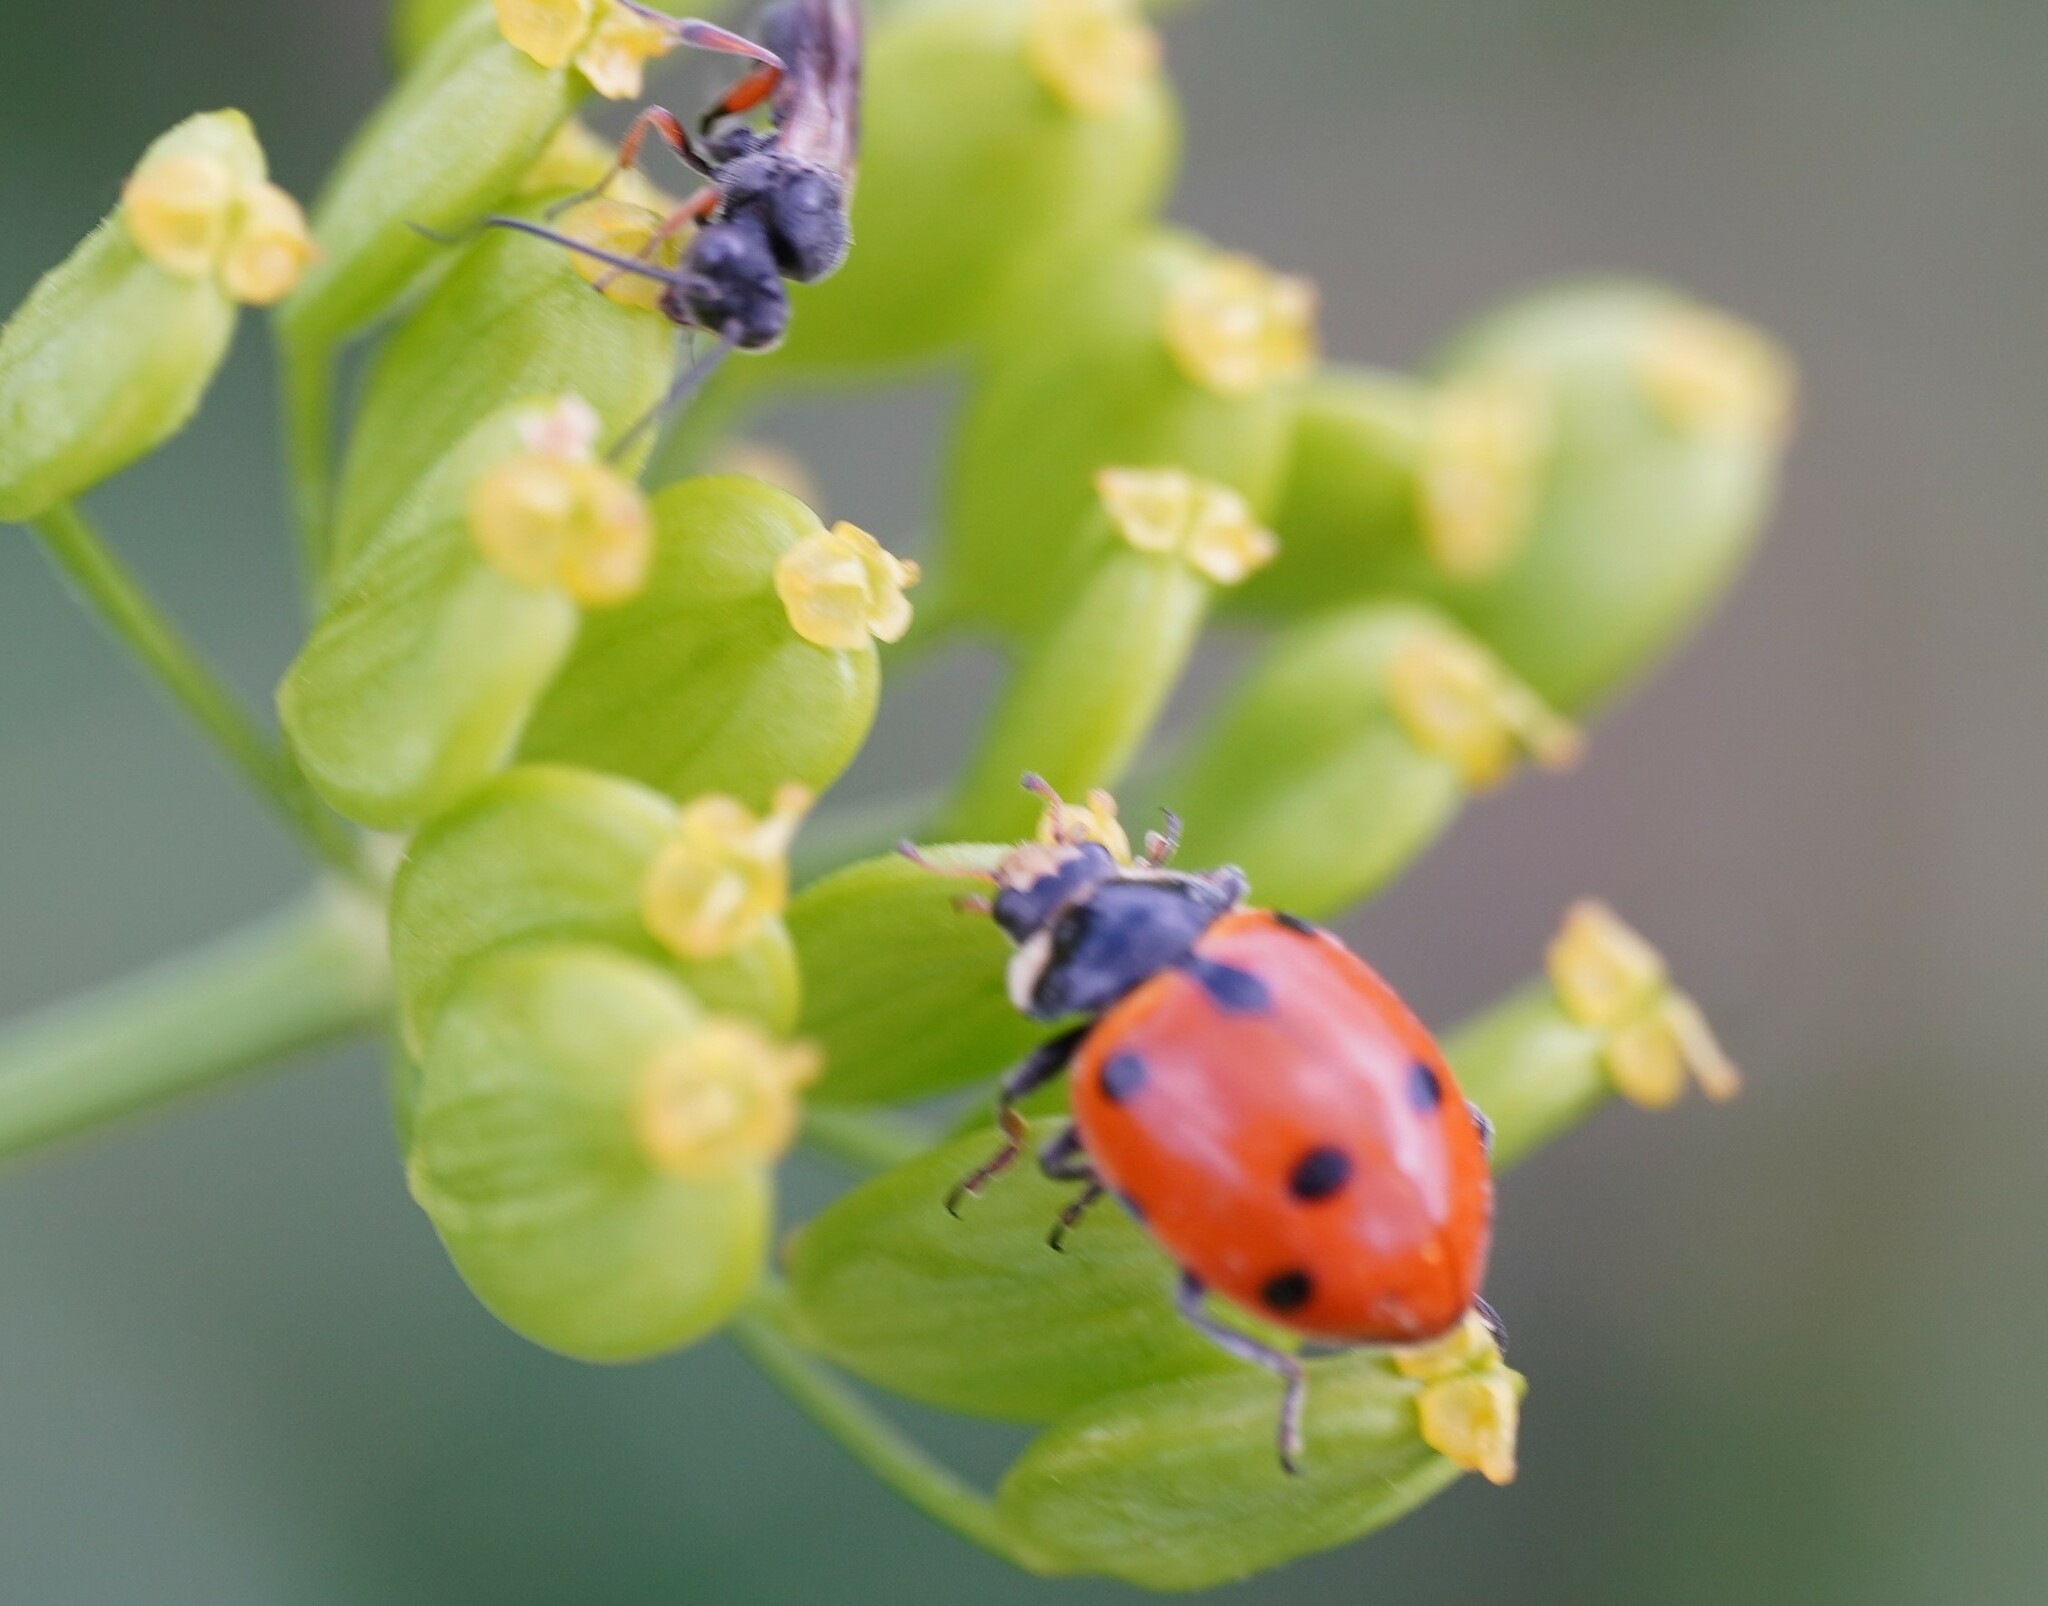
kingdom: Animalia
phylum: Arthropoda
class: Insecta
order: Coleoptera
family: Coccinellidae
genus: Ceratomegilla
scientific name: Ceratomegilla undecimnotata
